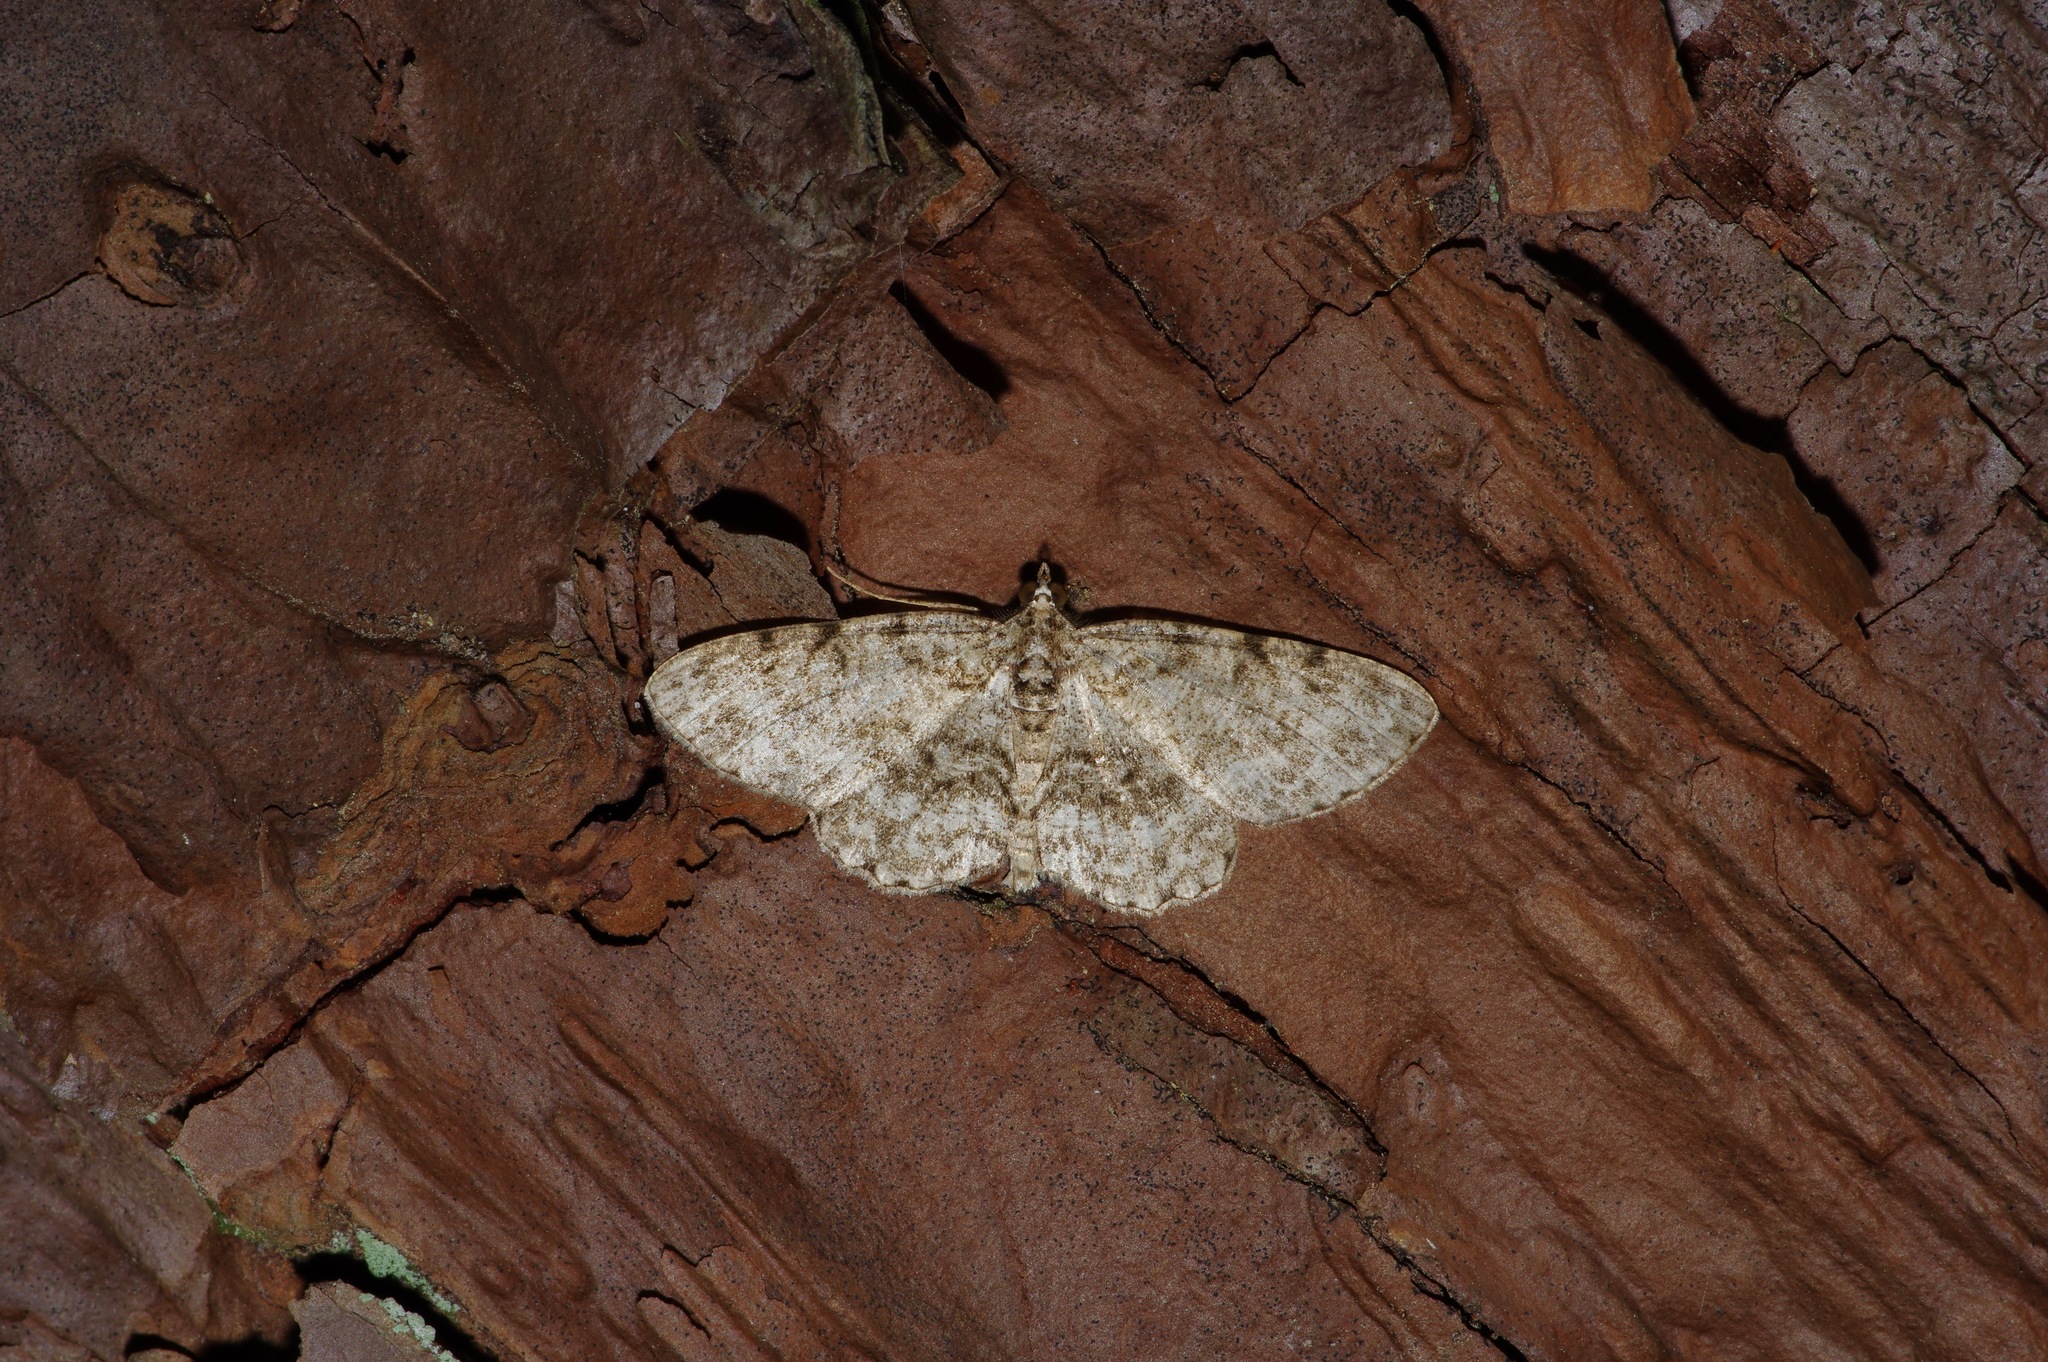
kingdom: Animalia
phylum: Arthropoda
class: Insecta
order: Lepidoptera
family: Geometridae
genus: Protoboarmia
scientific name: Protoboarmia porcelaria
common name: Porcelain gray
